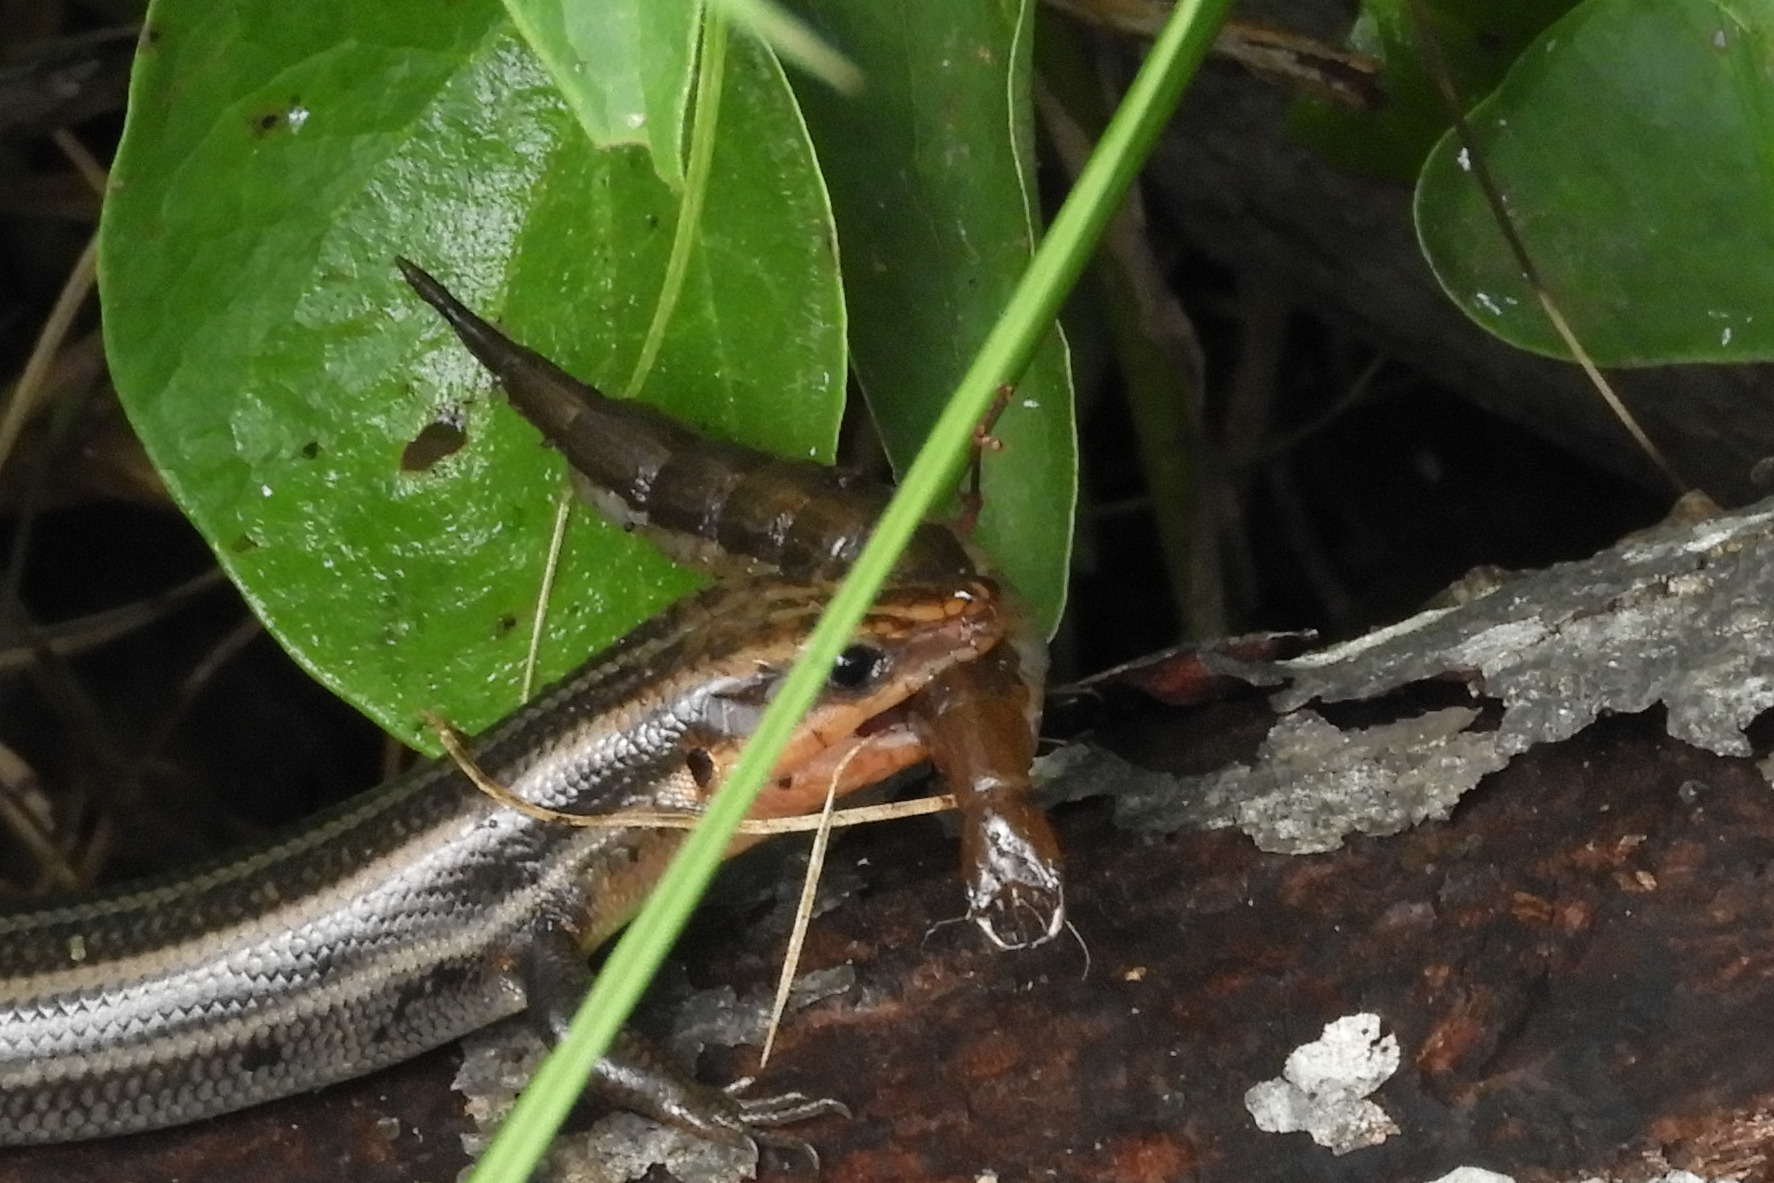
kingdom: Animalia
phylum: Arthropoda
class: Insecta
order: Coleoptera
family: Dytiscidae
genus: Cybister
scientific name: Cybister fimbriolatus
